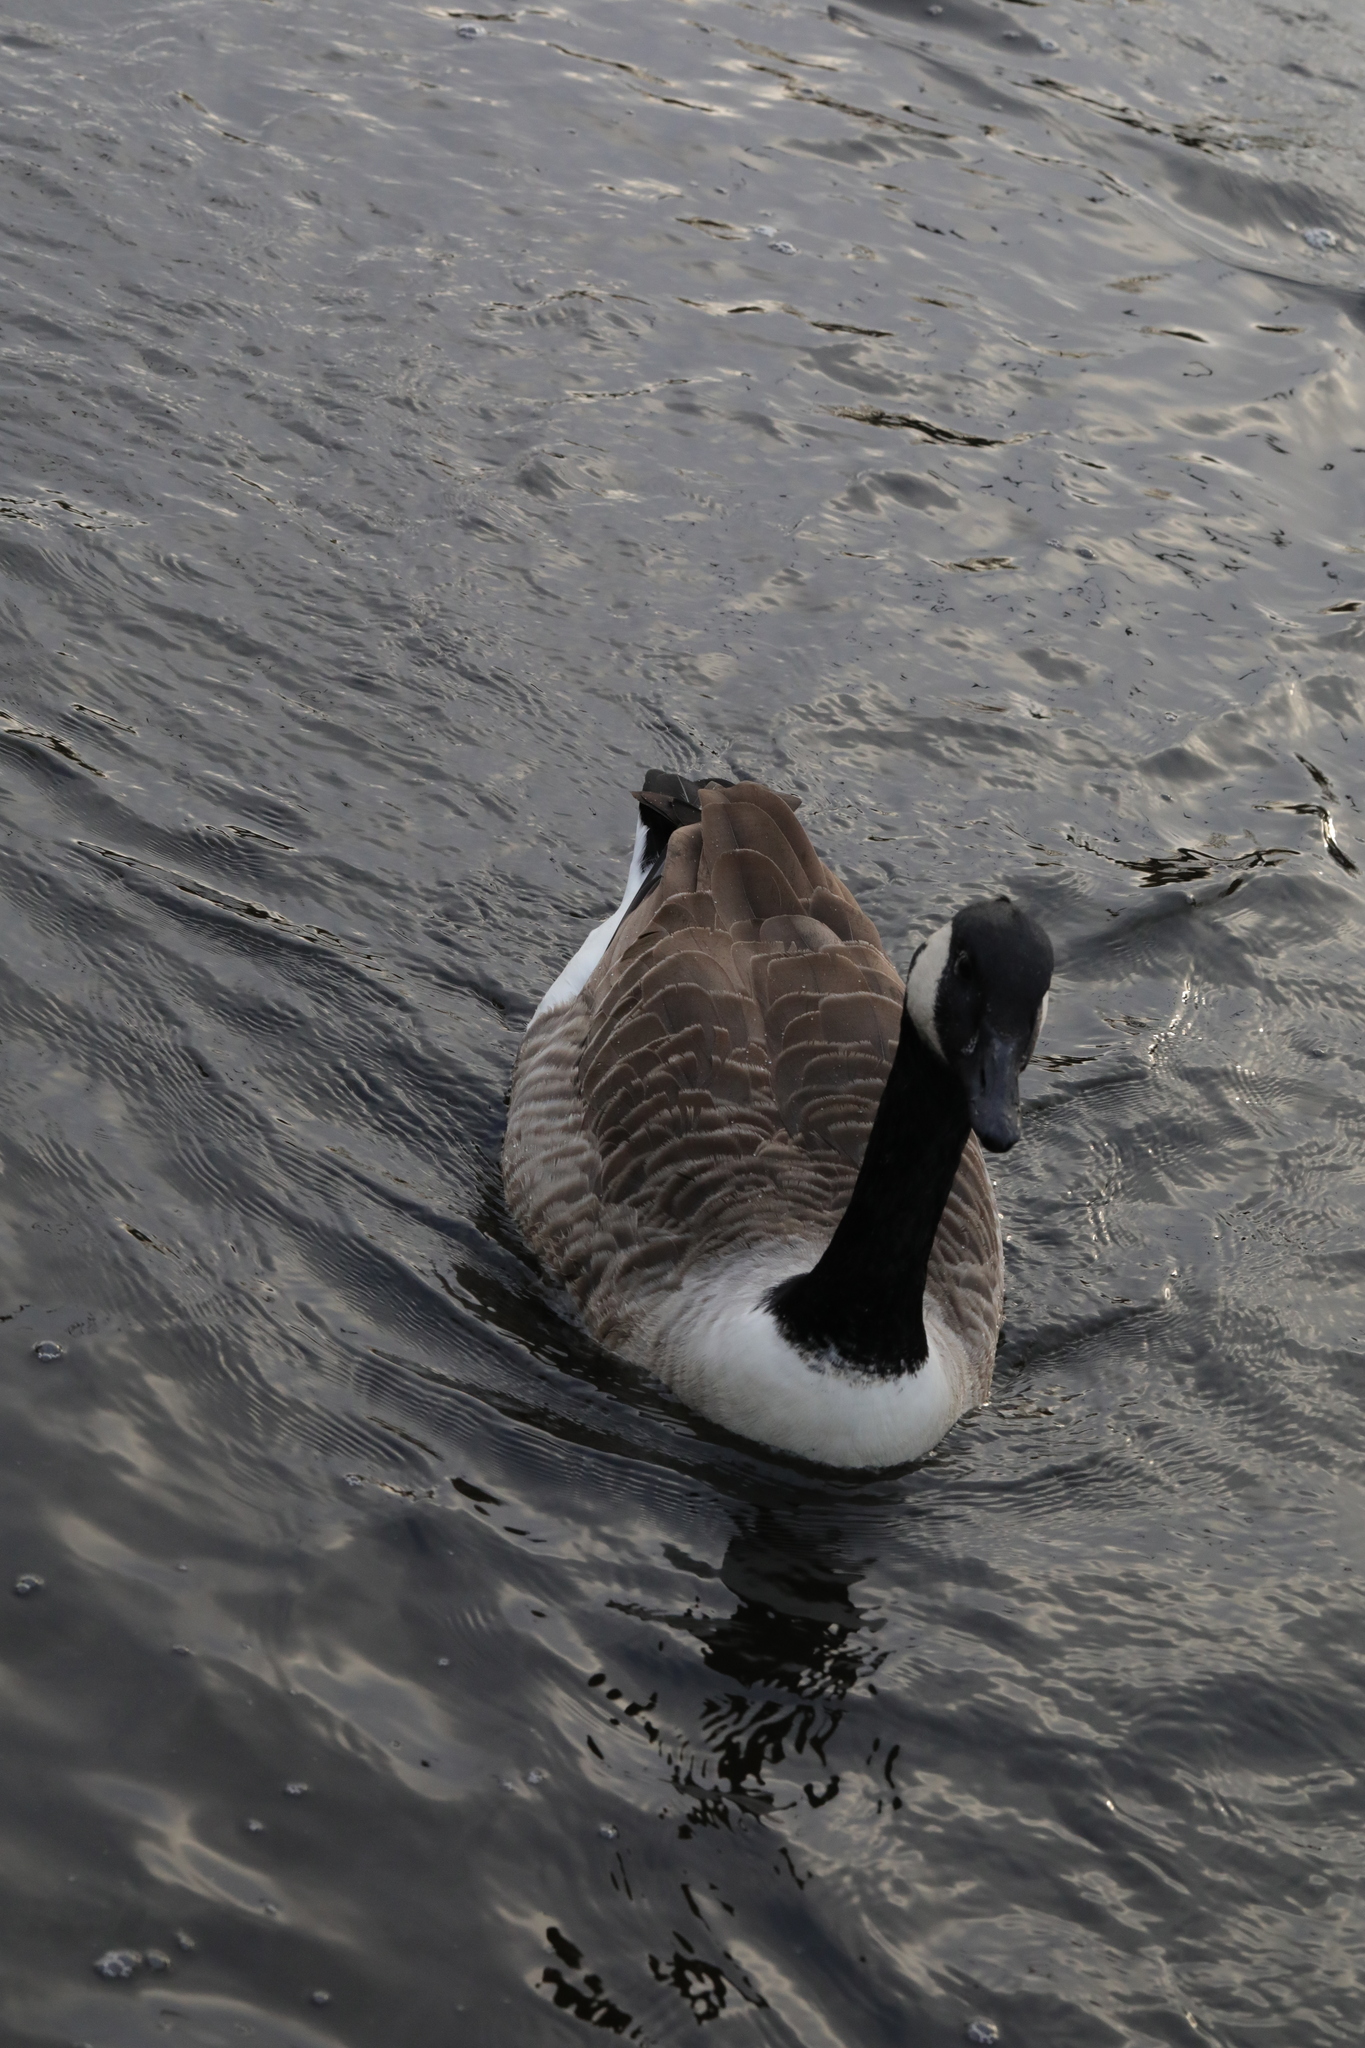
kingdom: Animalia
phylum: Chordata
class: Aves
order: Anseriformes
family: Anatidae
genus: Branta
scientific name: Branta canadensis
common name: Canada goose
